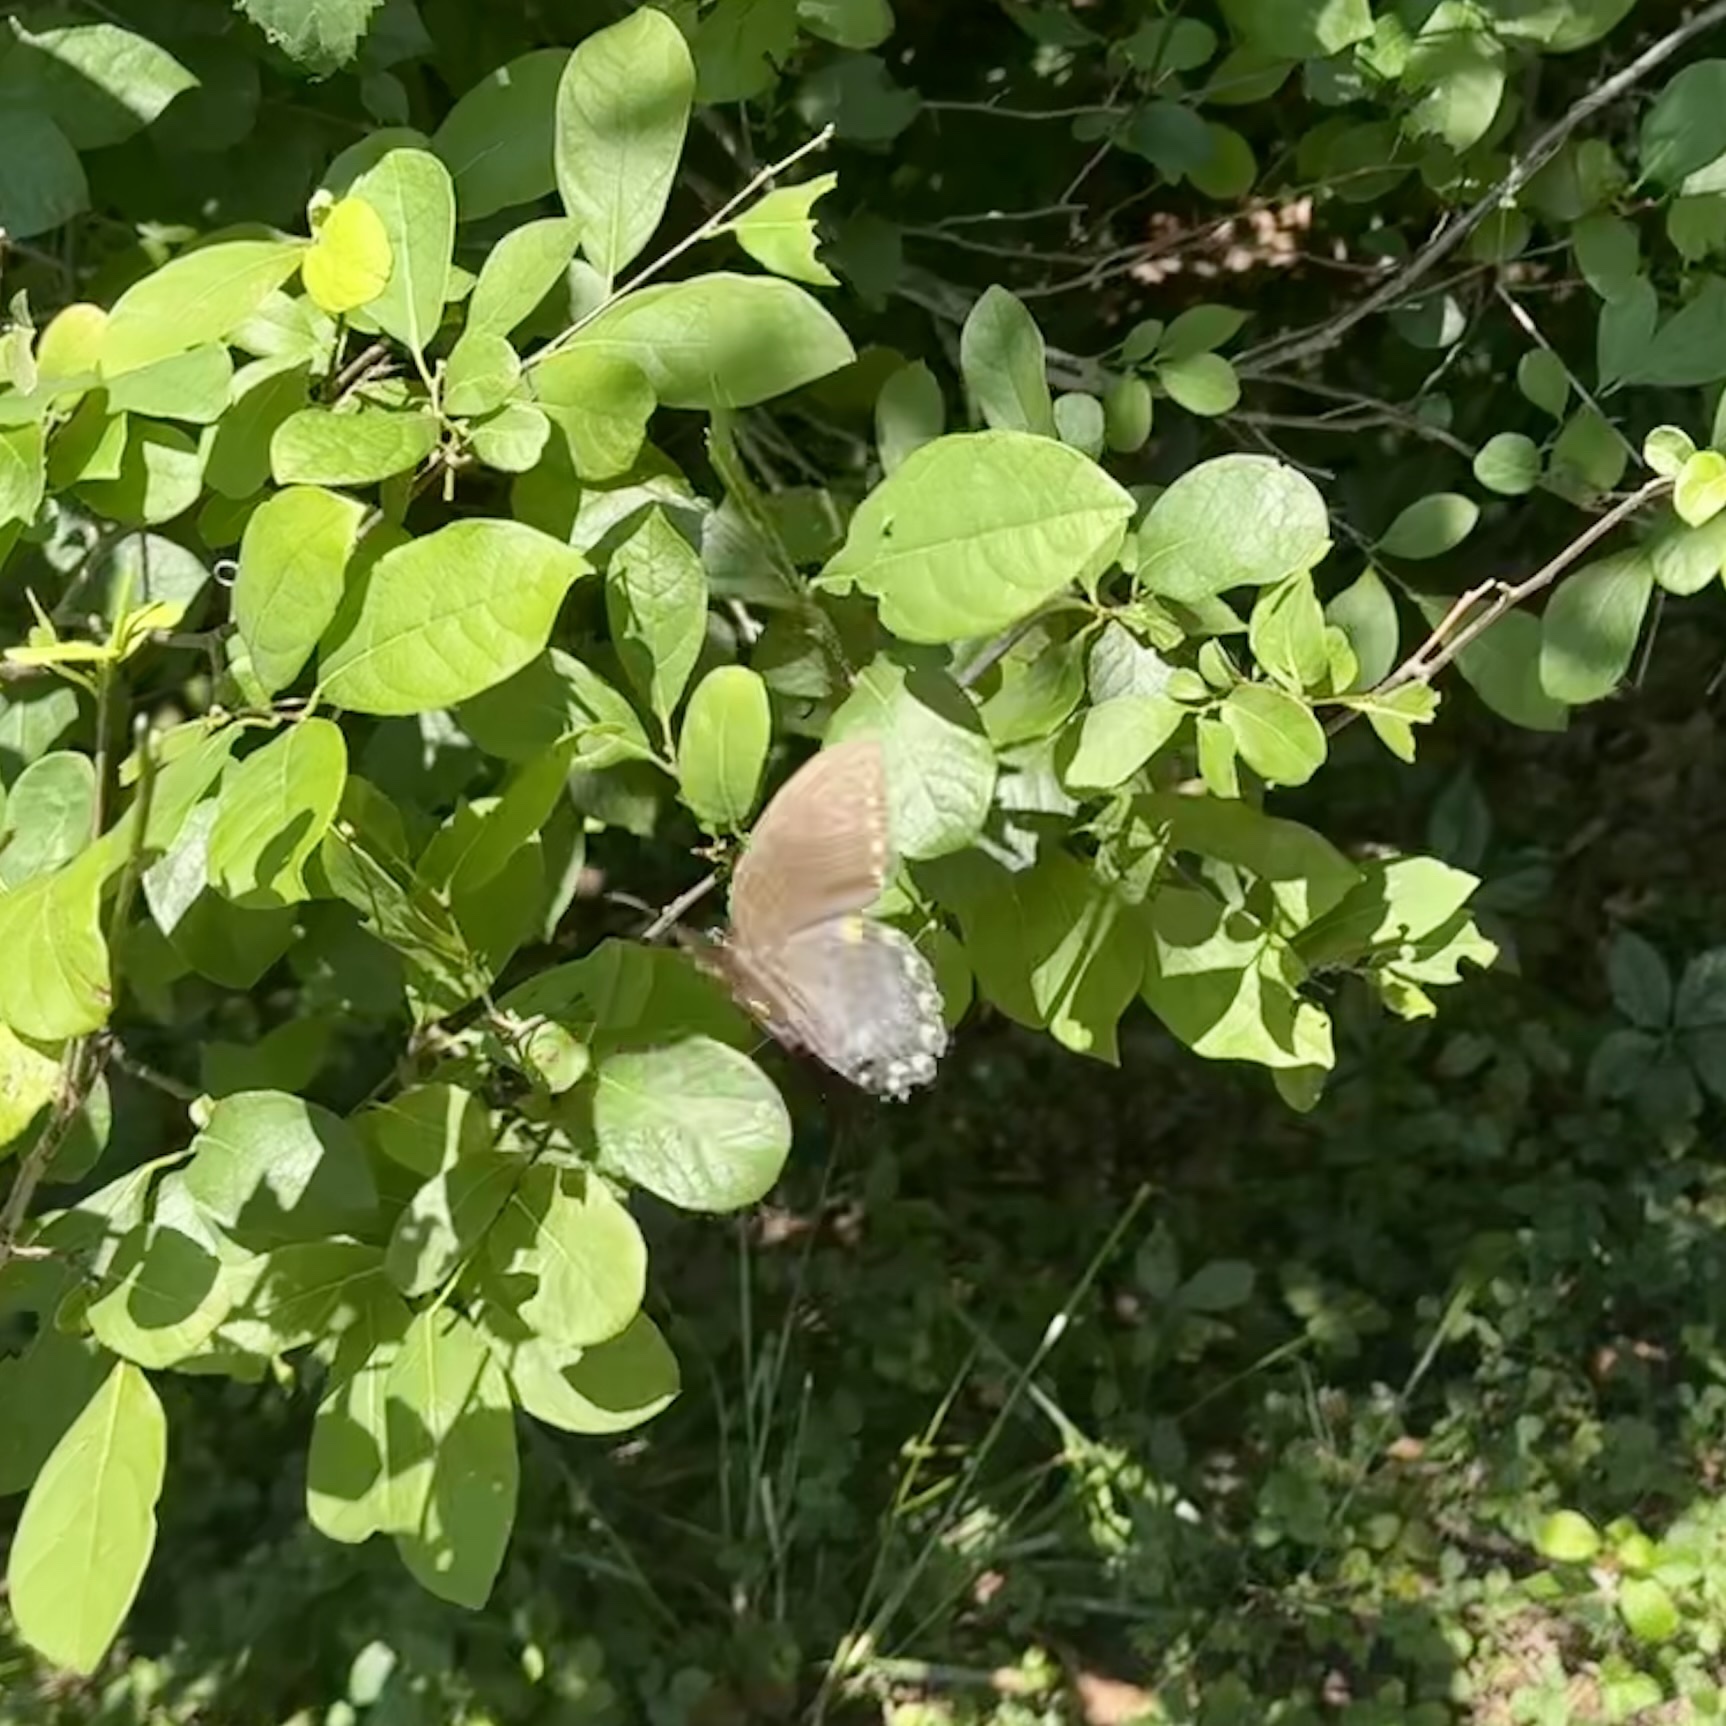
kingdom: Animalia
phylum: Arthropoda
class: Insecta
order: Lepidoptera
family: Papilionidae
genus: Papilio
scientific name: Papilio troilus
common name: Spicebush swallowtail
